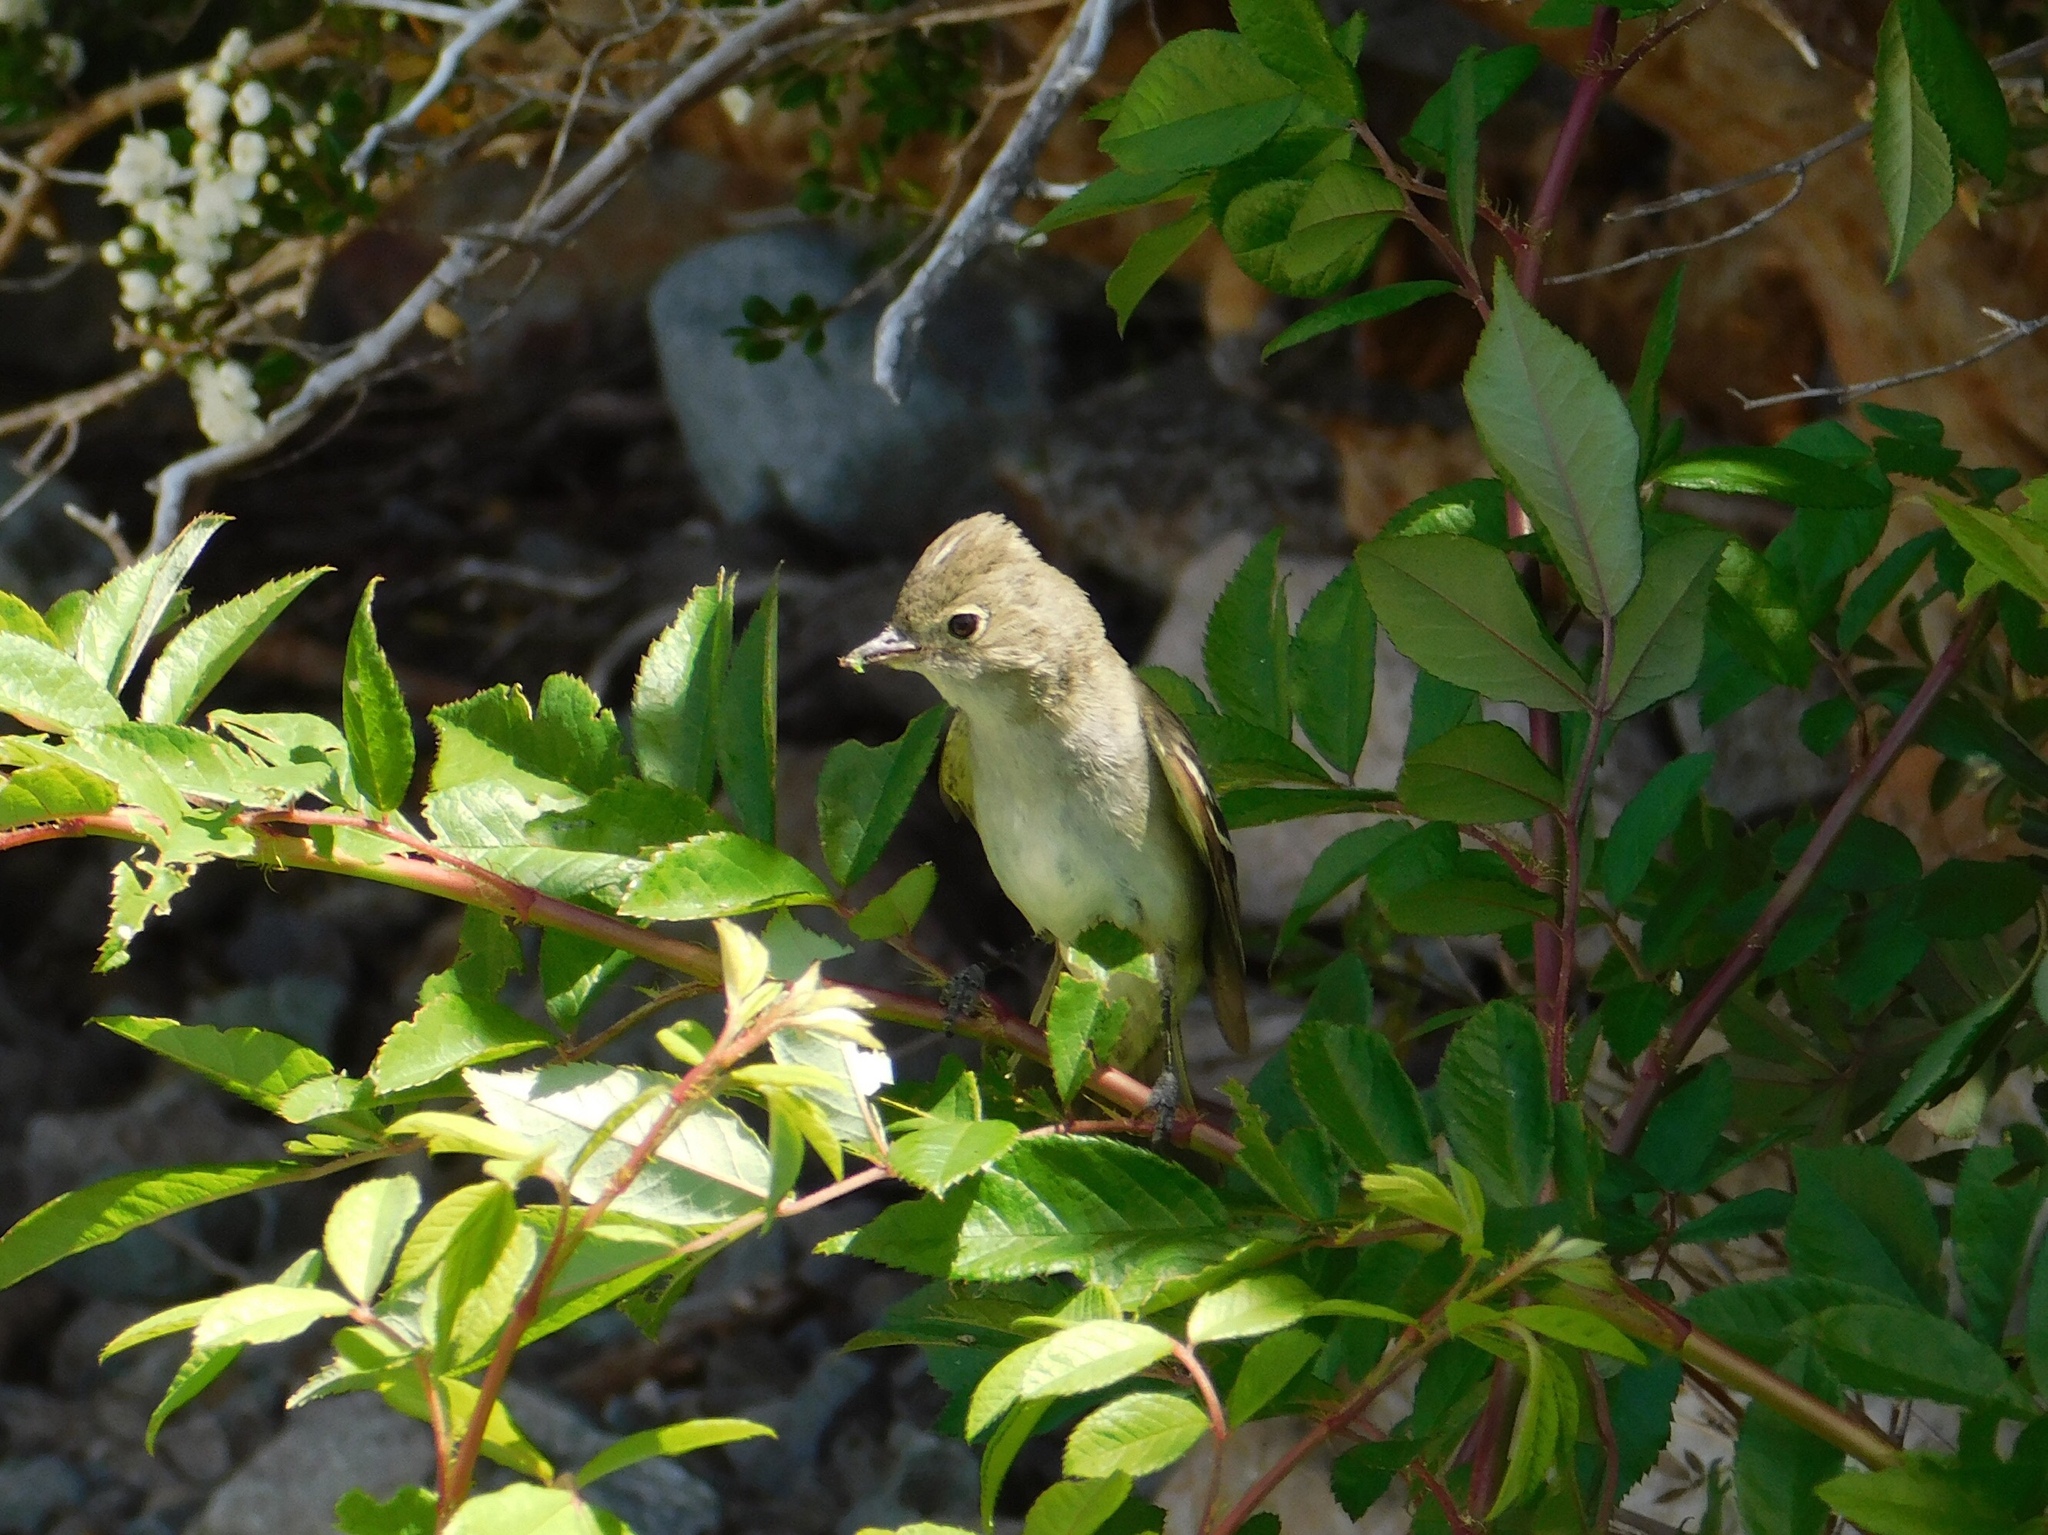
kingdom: Animalia
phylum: Chordata
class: Aves
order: Passeriformes
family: Tyrannidae
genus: Elaenia
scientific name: Elaenia albiceps
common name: White-crested elaenia
